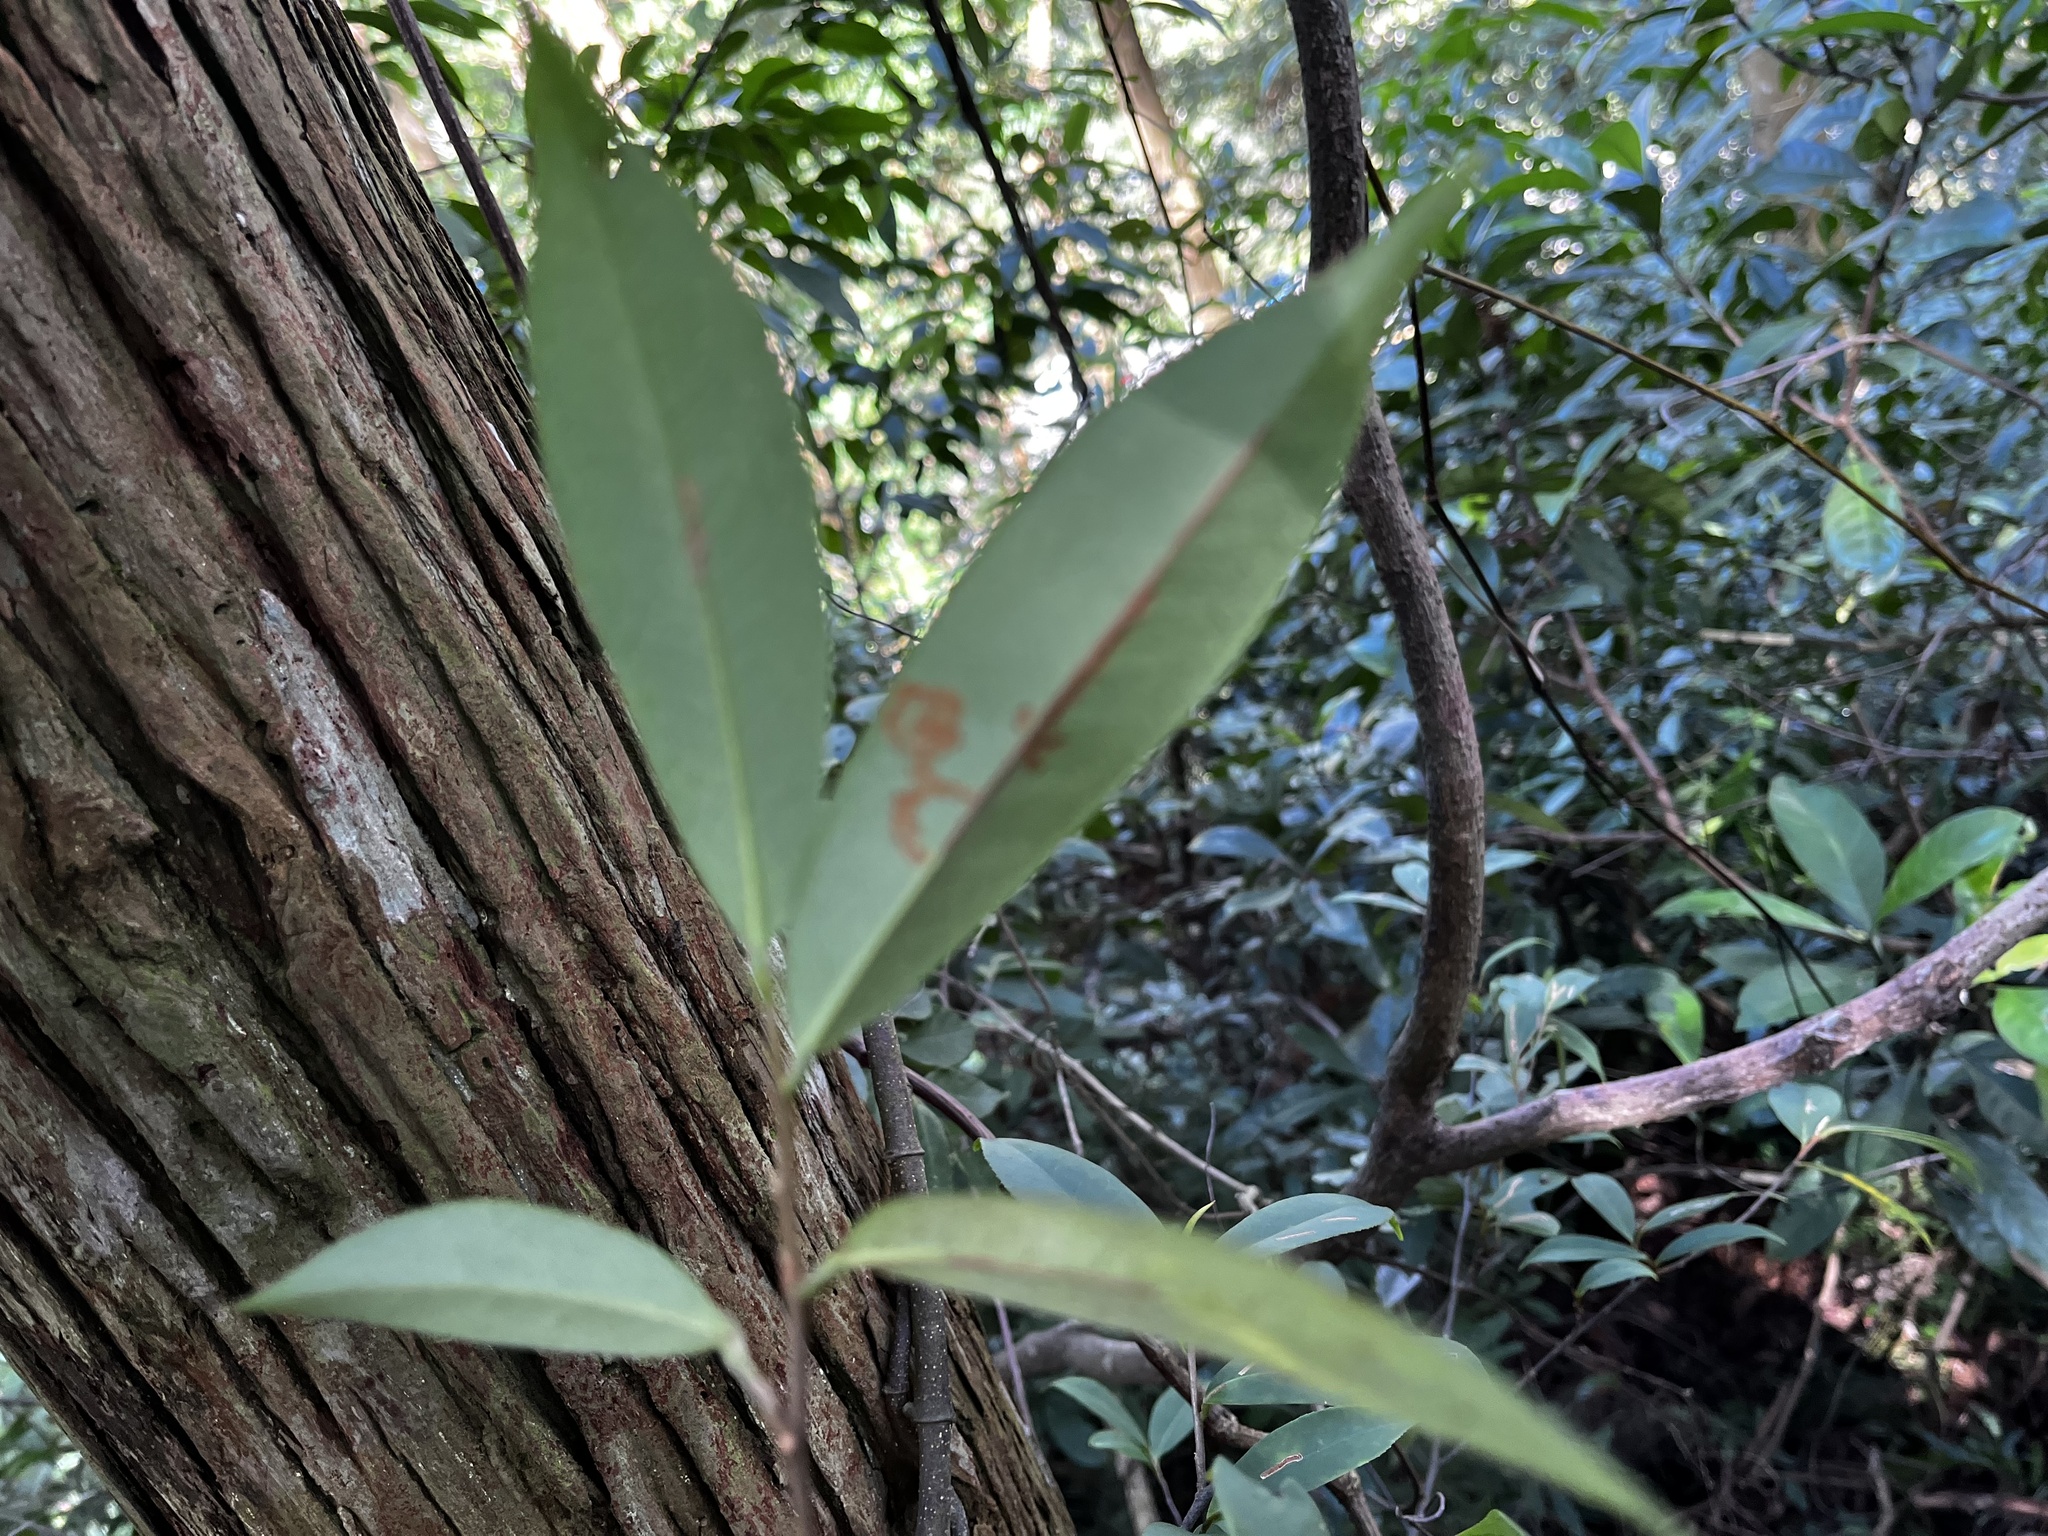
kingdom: Plantae
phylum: Tracheophyta
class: Magnoliopsida
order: Ericales
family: Pentaphylacaceae
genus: Adinandra
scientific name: Adinandra formosana
